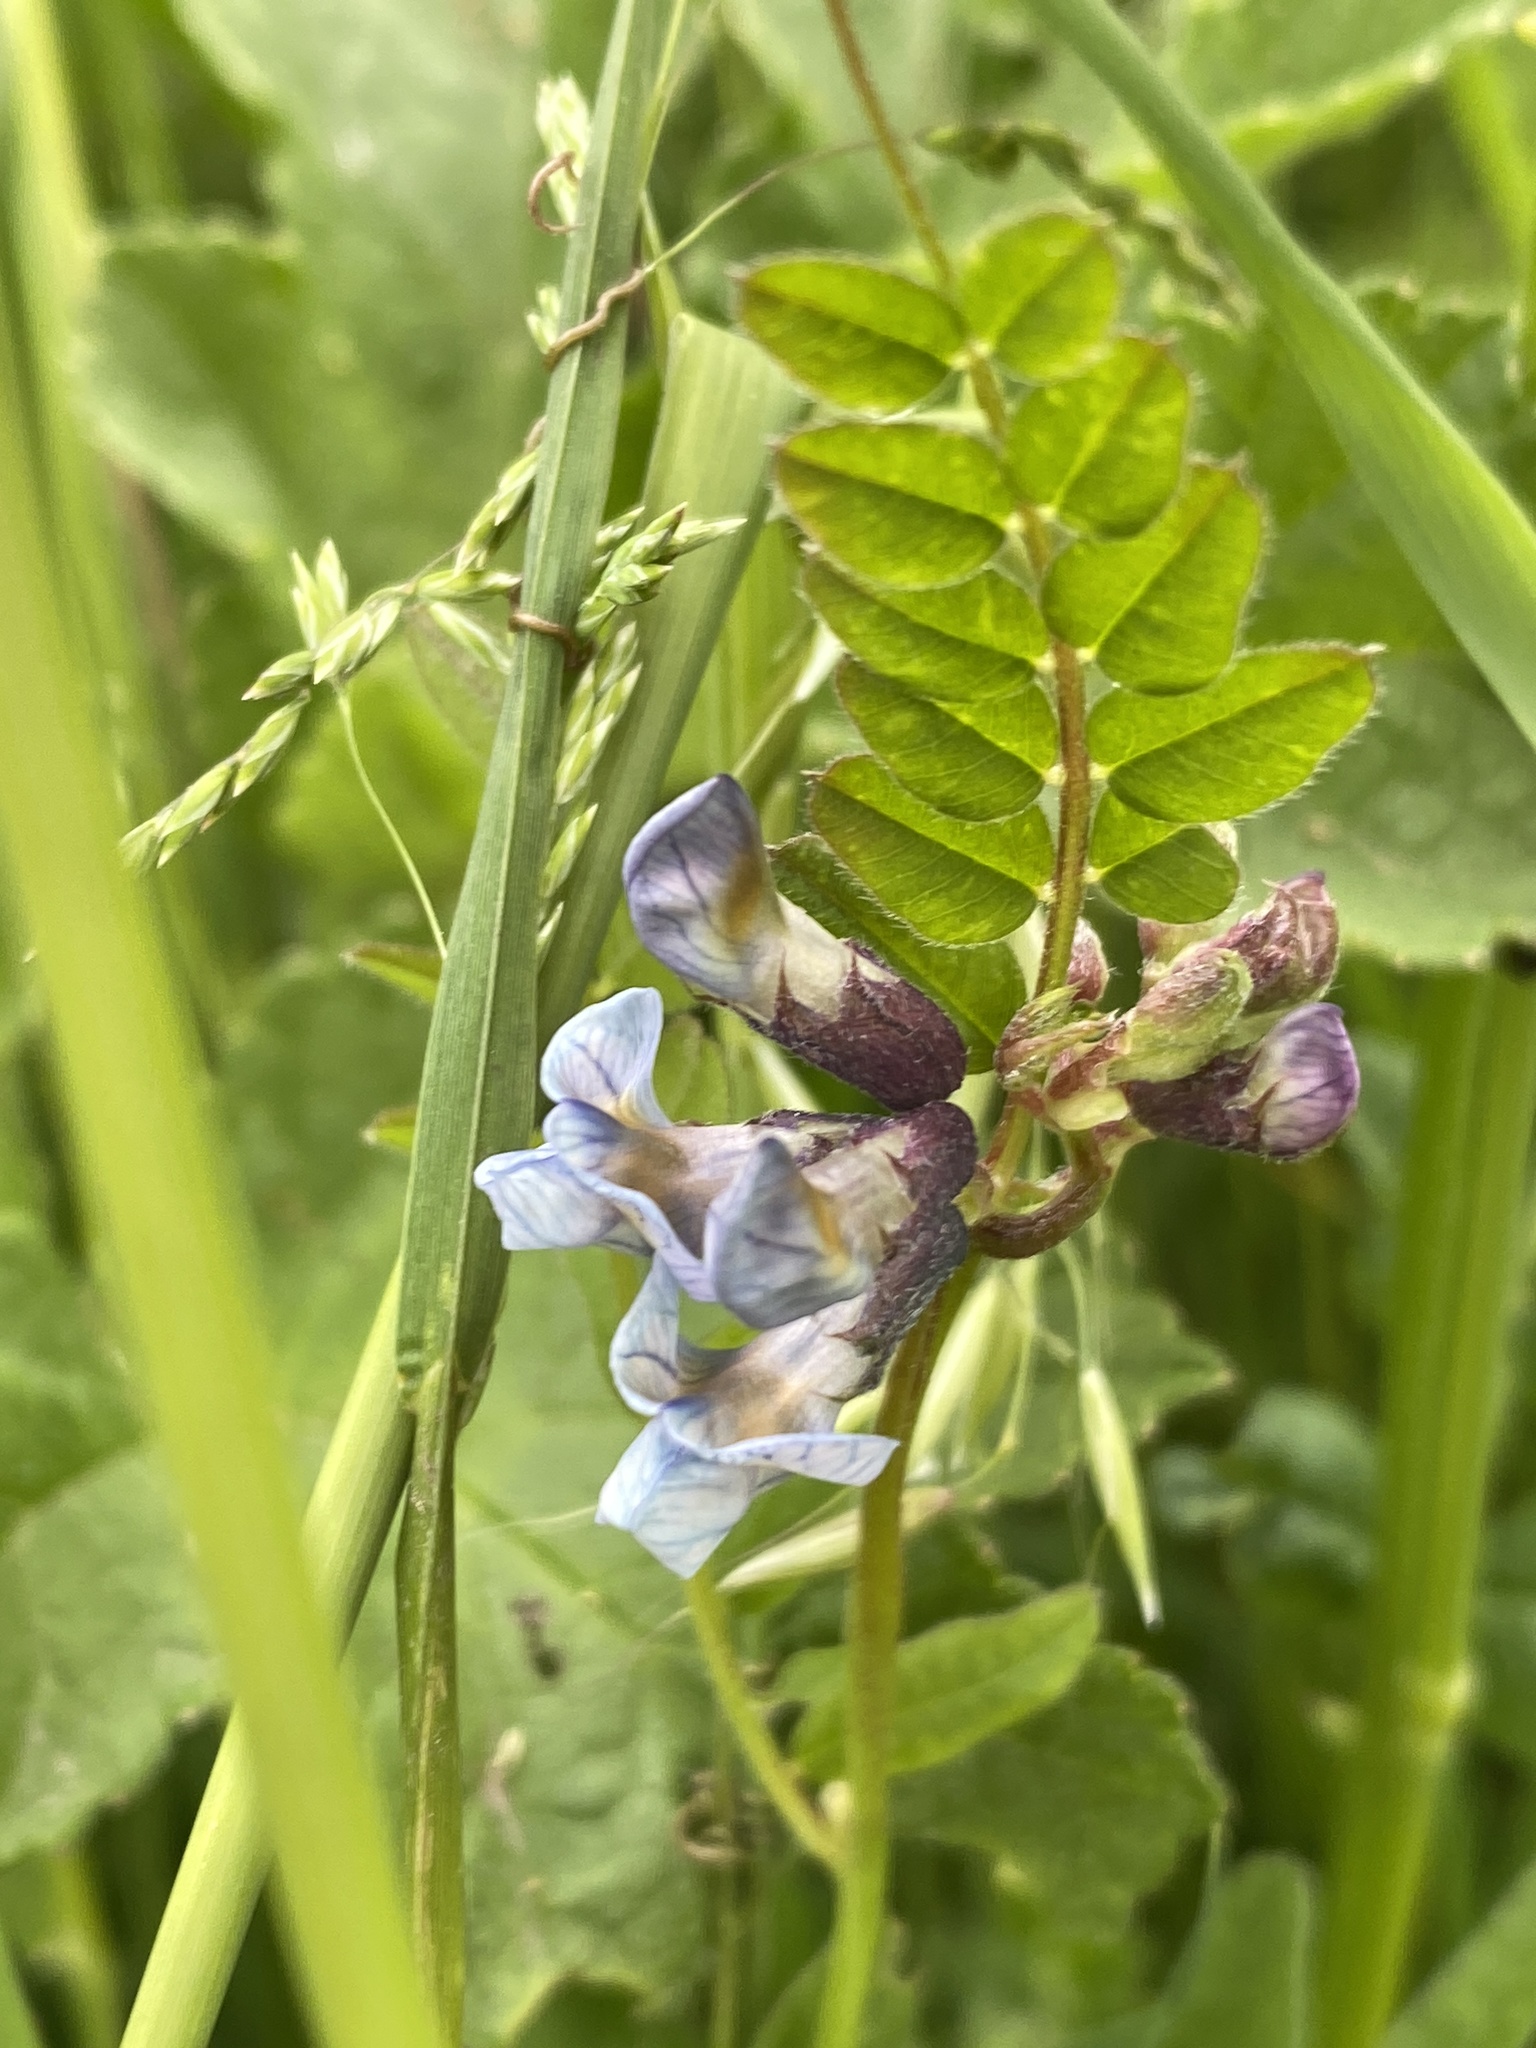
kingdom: Plantae
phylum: Tracheophyta
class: Magnoliopsida
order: Fabales
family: Fabaceae
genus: Vicia
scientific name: Vicia sepium
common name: Bush vetch
